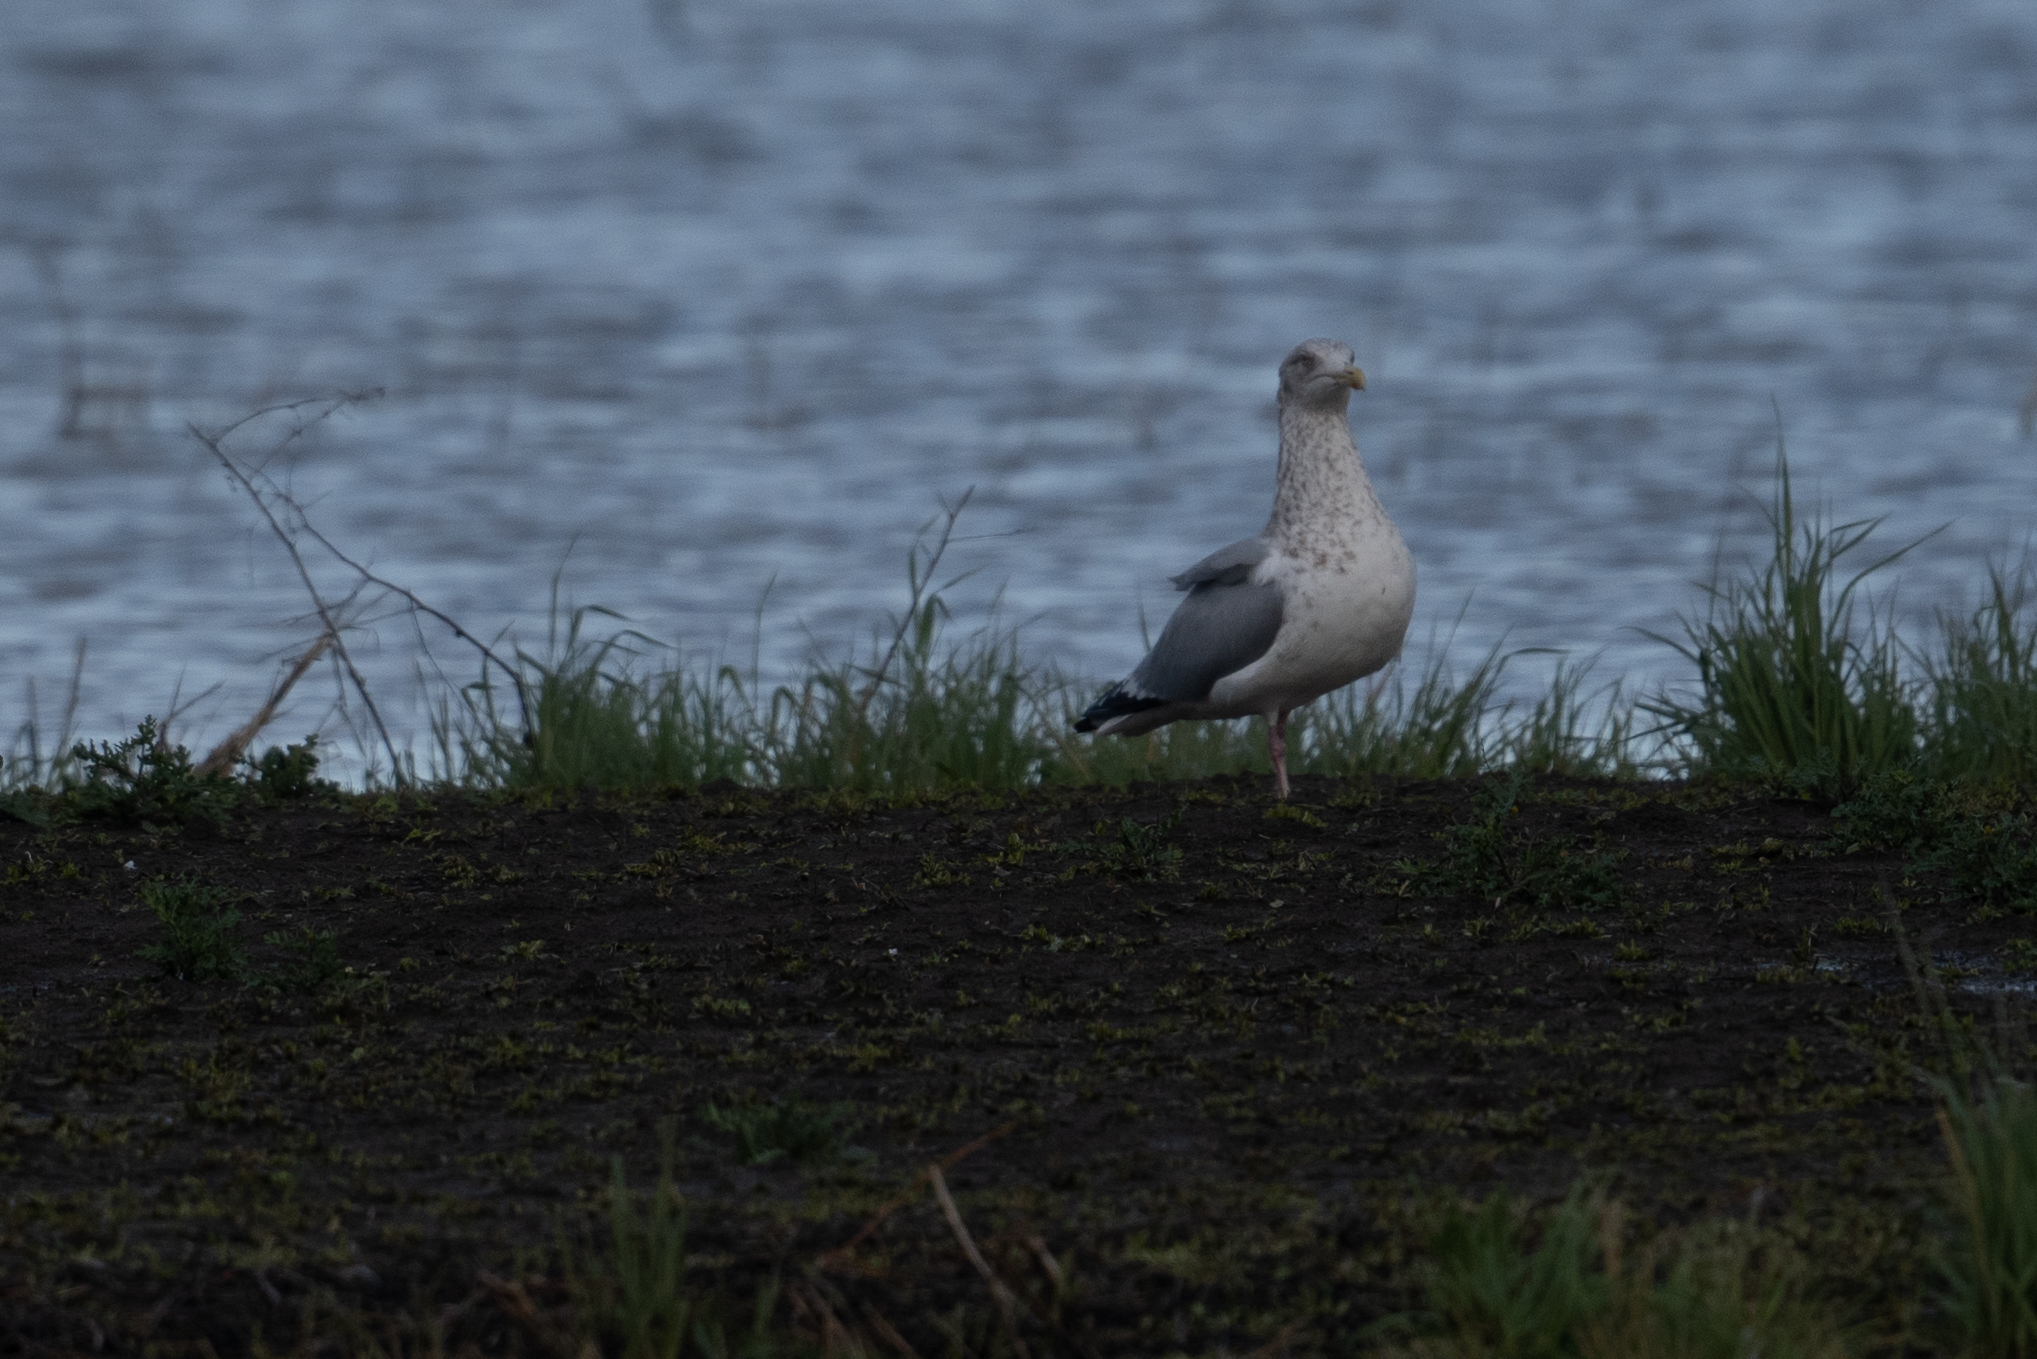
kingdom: Animalia
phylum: Chordata
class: Aves
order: Charadriiformes
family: Laridae
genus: Larus
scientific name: Larus argentatus
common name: Herring gull
